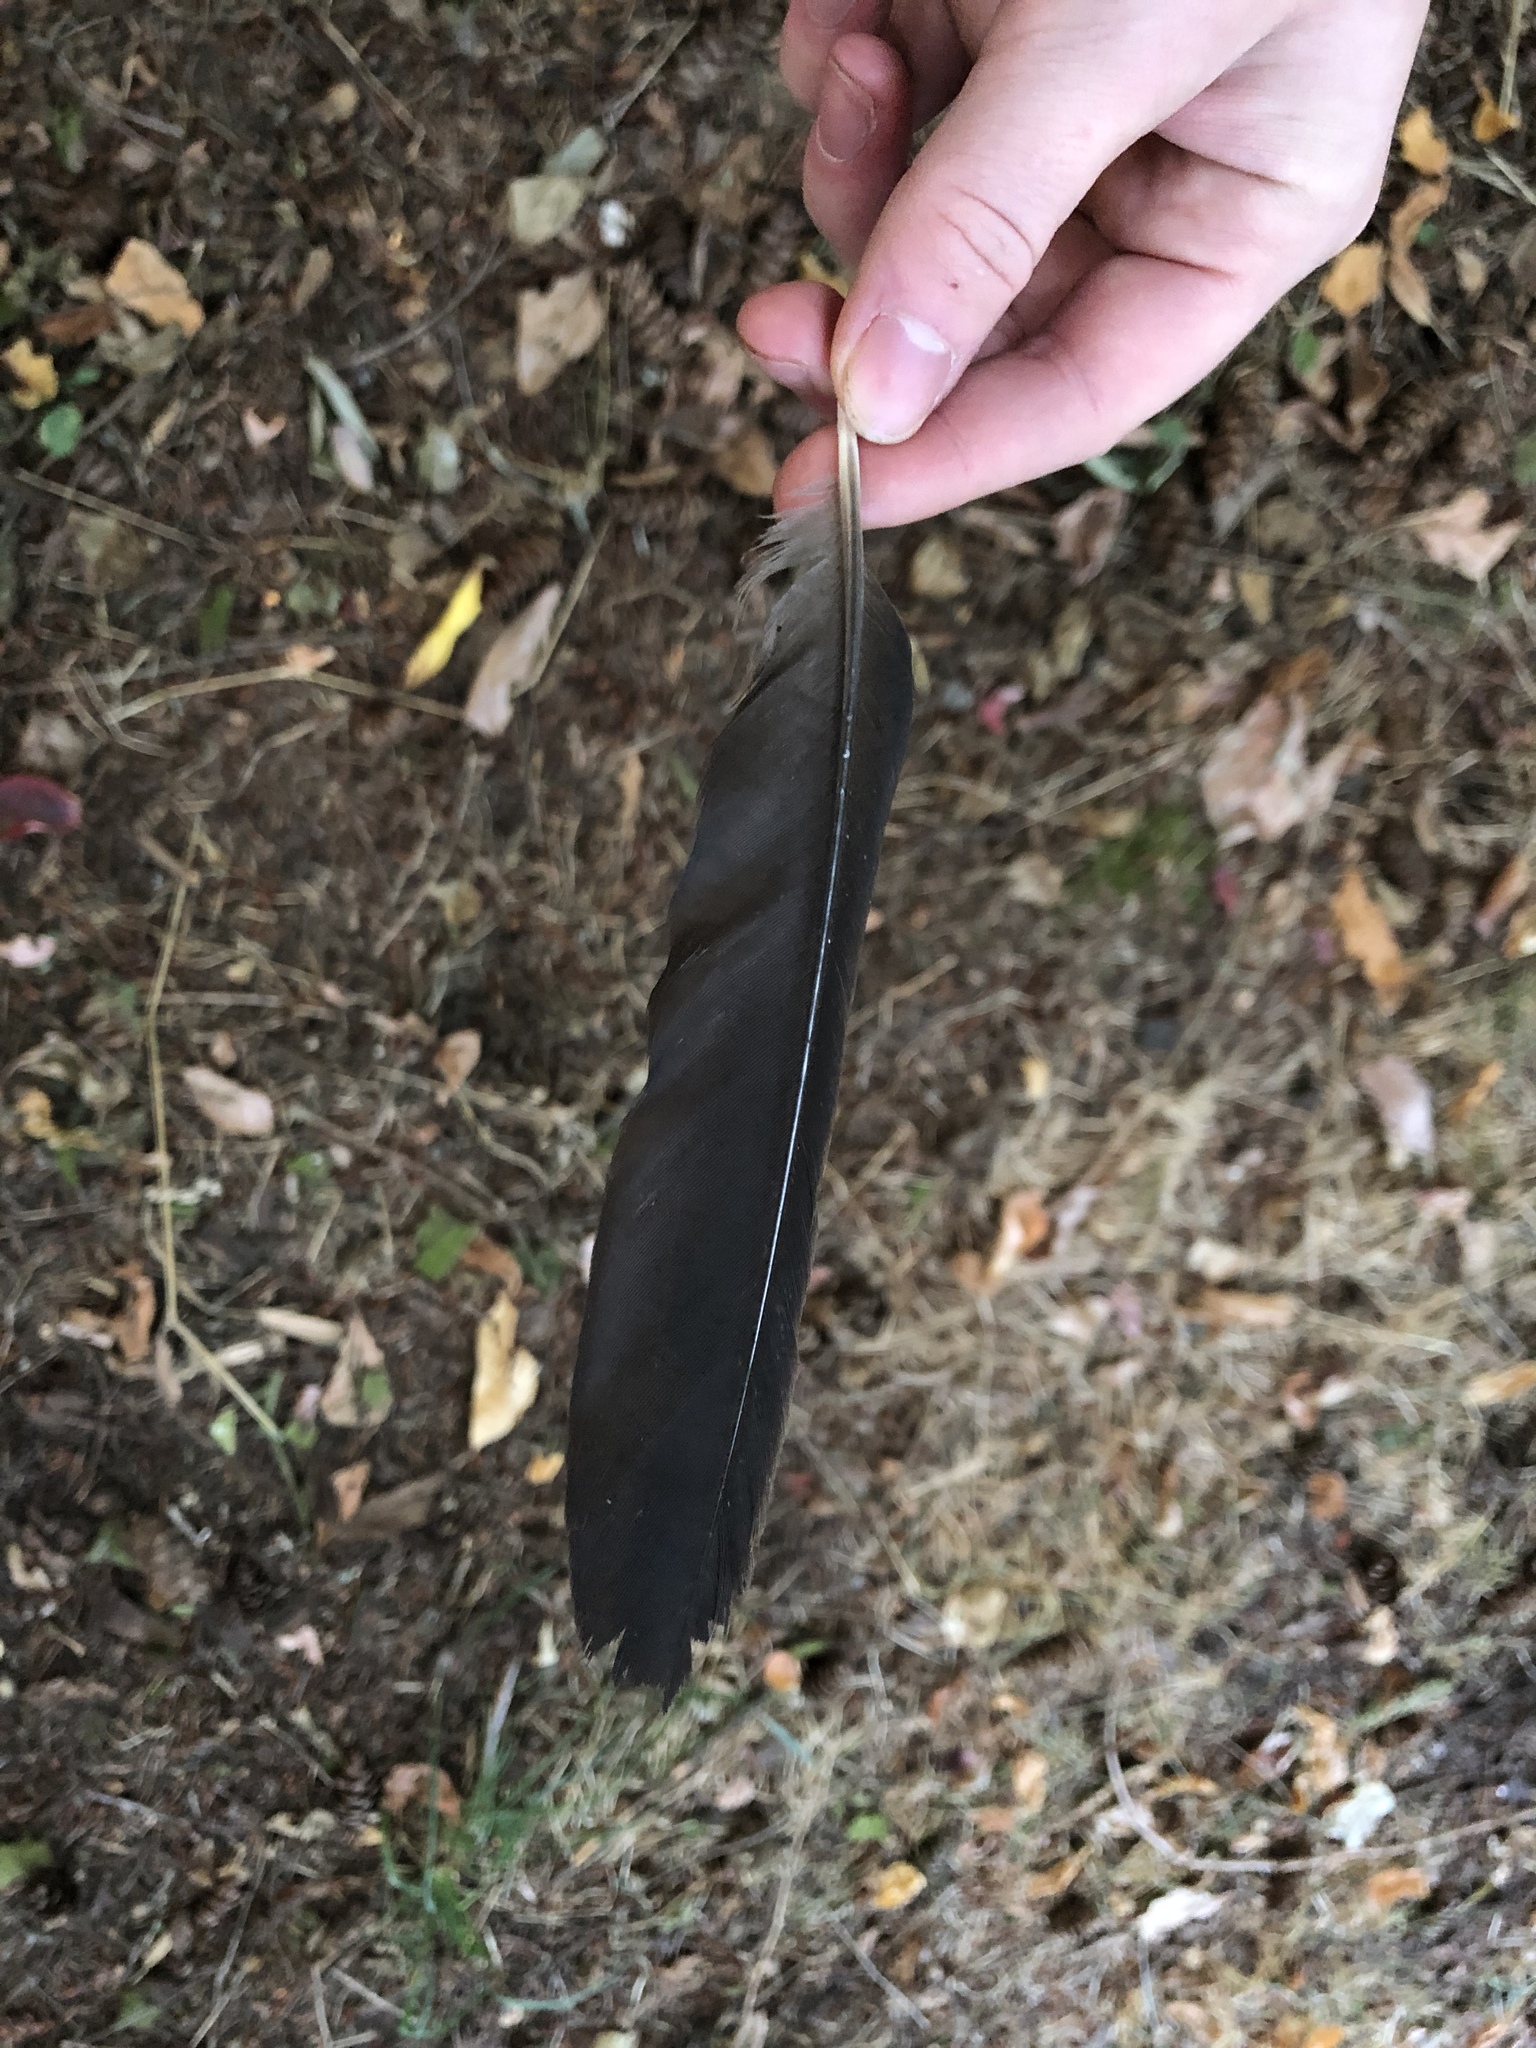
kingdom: Animalia
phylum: Chordata
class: Aves
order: Passeriformes
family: Corvidae
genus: Corvus
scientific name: Corvus brachyrhynchos
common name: American crow
